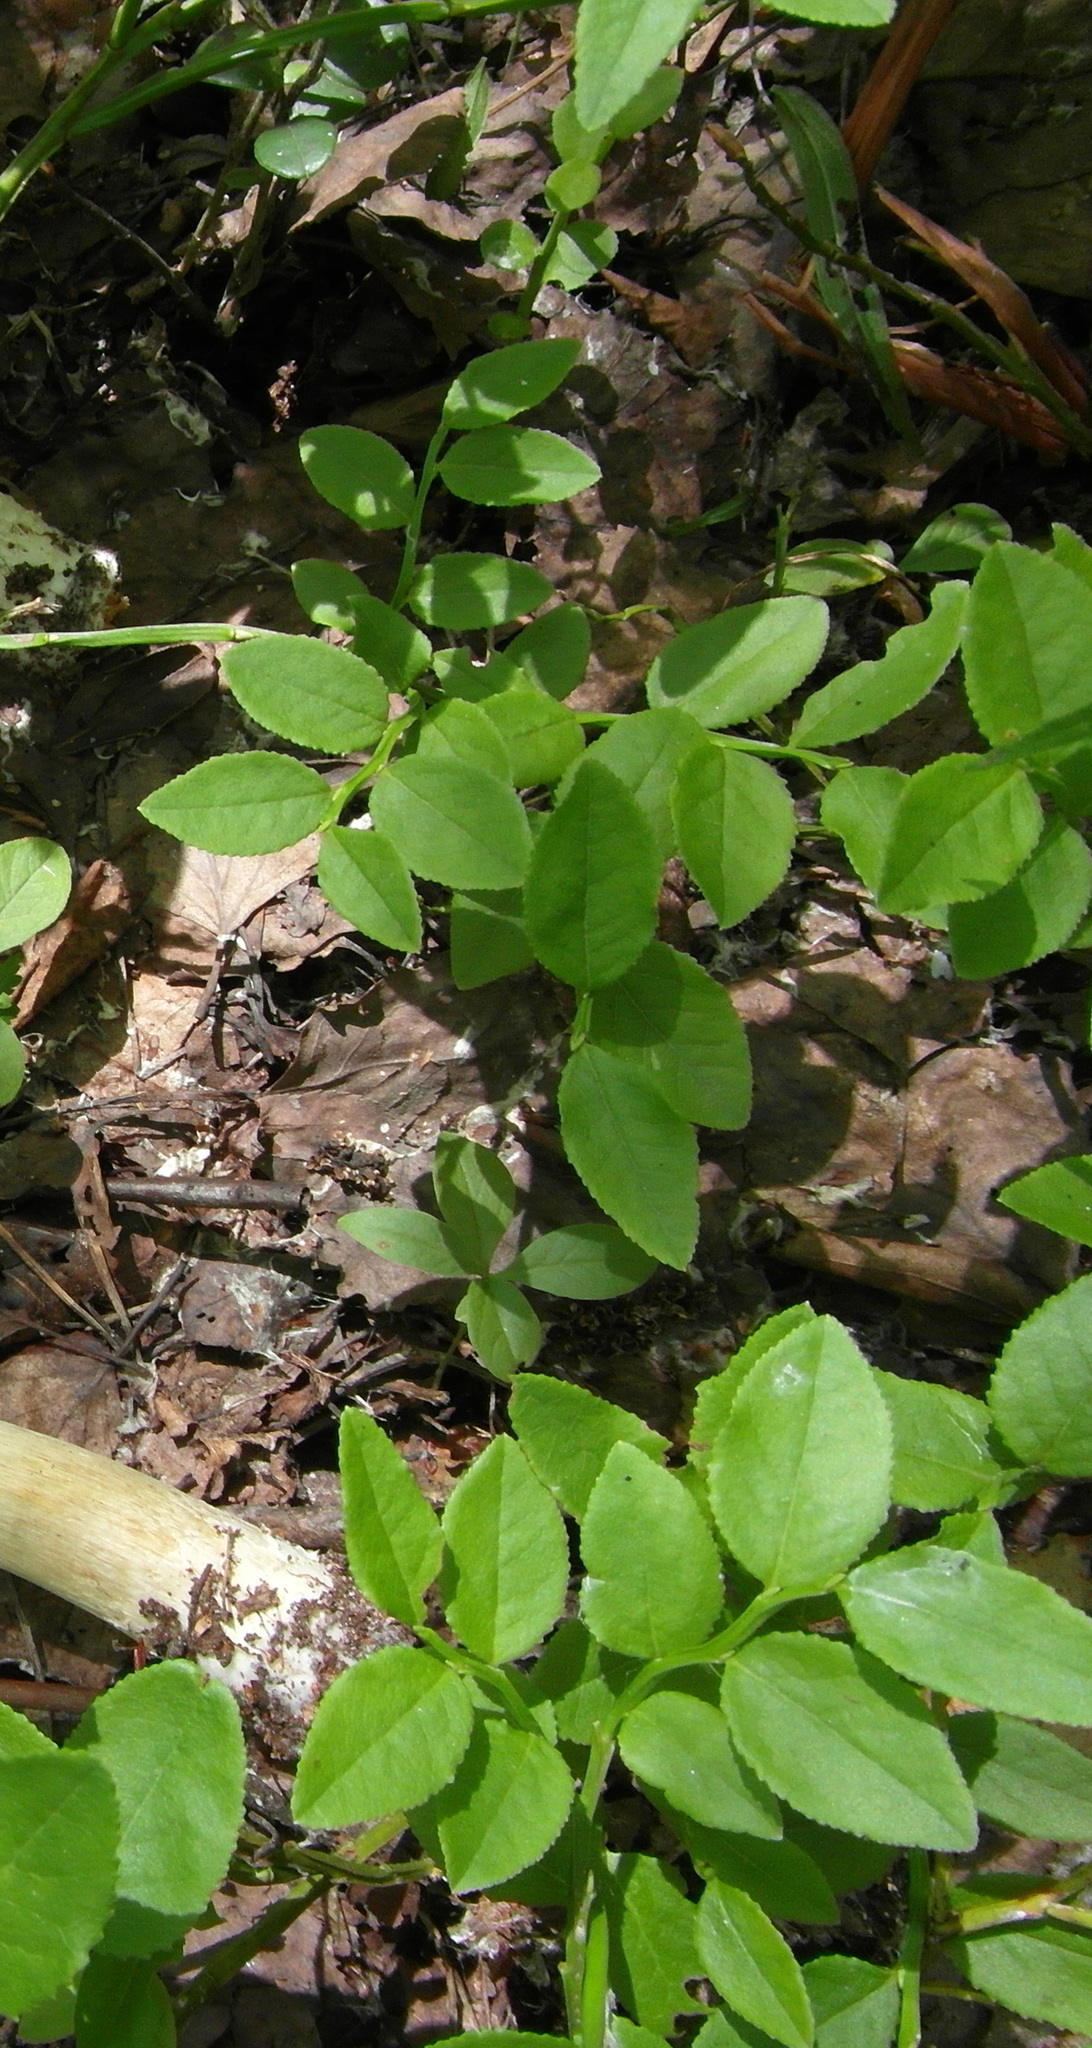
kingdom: Plantae
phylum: Tracheophyta
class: Magnoliopsida
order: Ericales
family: Ericaceae
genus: Vaccinium
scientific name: Vaccinium myrtillus
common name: Bilberry
